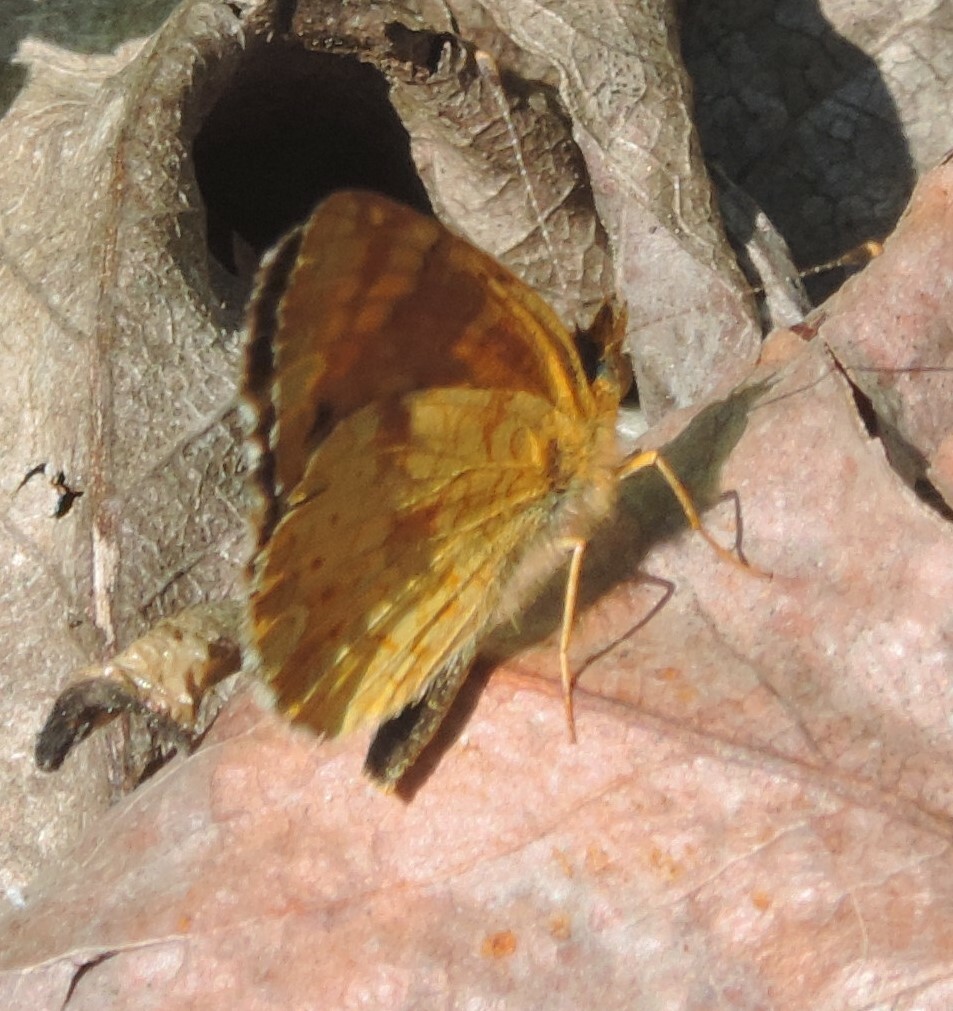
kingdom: Animalia
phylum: Arthropoda
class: Insecta
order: Lepidoptera
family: Nymphalidae
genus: Phyciodes
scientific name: Phyciodes tharos
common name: Pearl crescent
